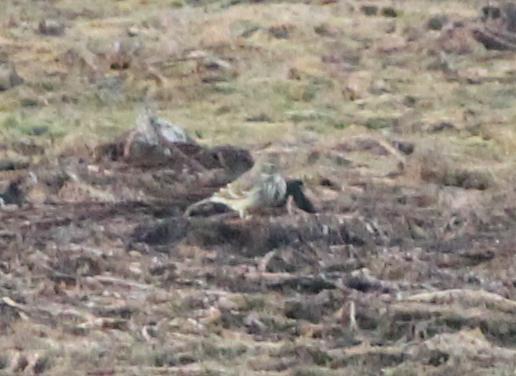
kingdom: Animalia
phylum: Chordata
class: Aves
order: Passeriformes
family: Motacillidae
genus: Anthus
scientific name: Anthus rubescens
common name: Buff-bellied pipit
